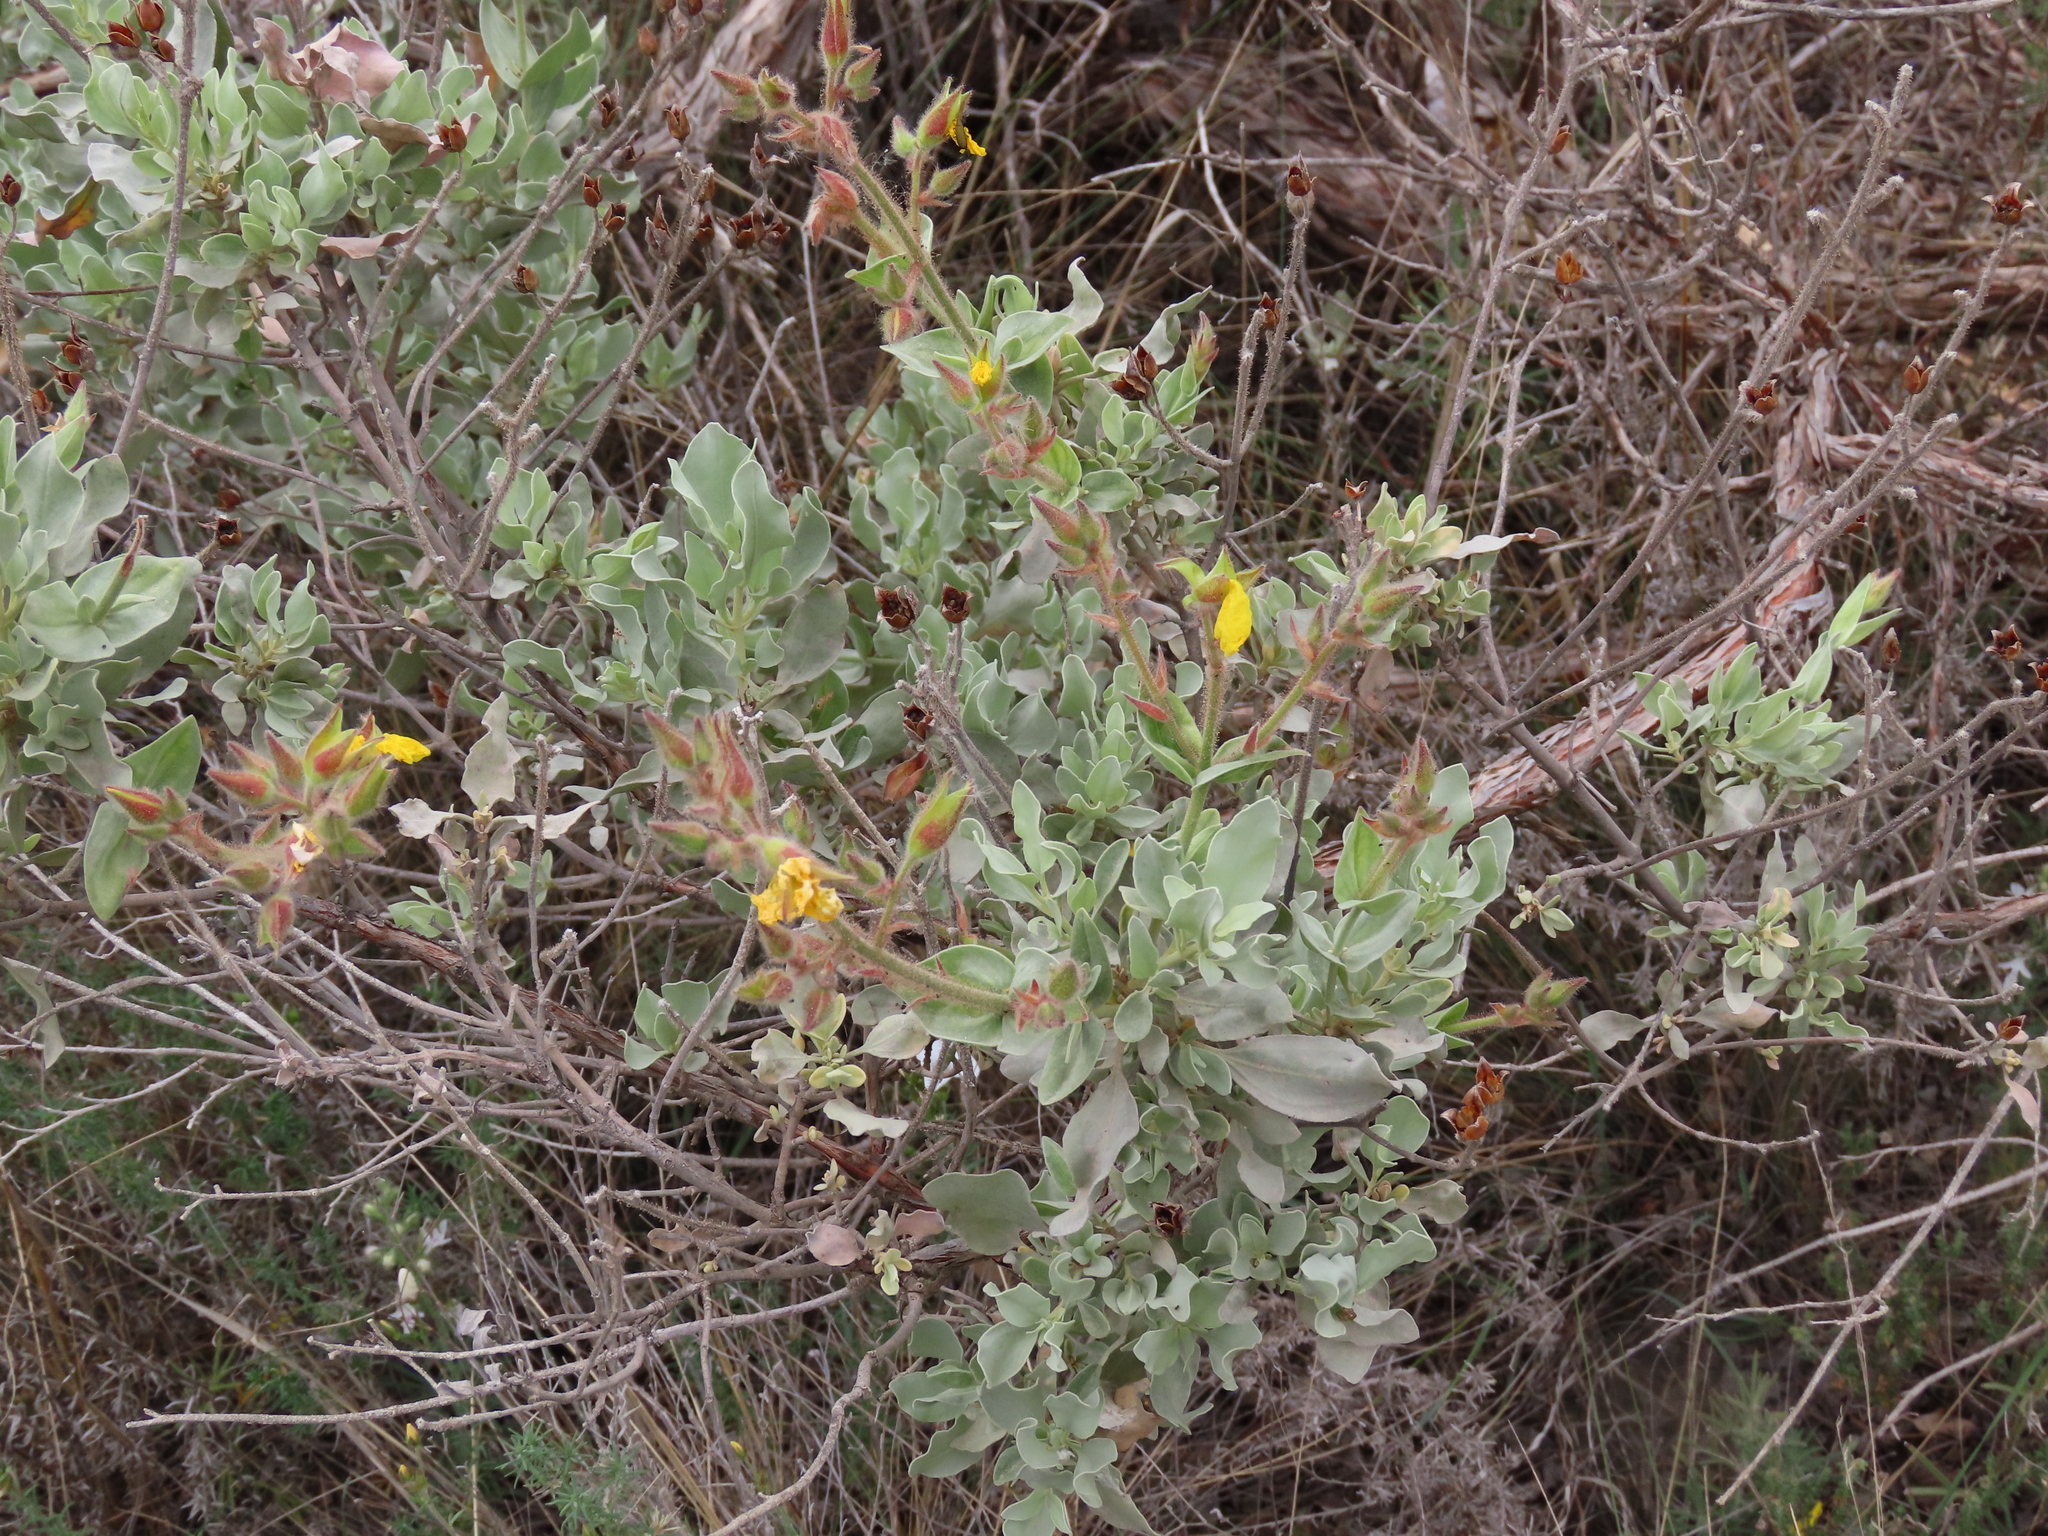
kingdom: Plantae
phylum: Tracheophyta
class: Magnoliopsida
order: Malvales
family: Cistaceae
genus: Halimium
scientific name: Halimium atriplicifolium
